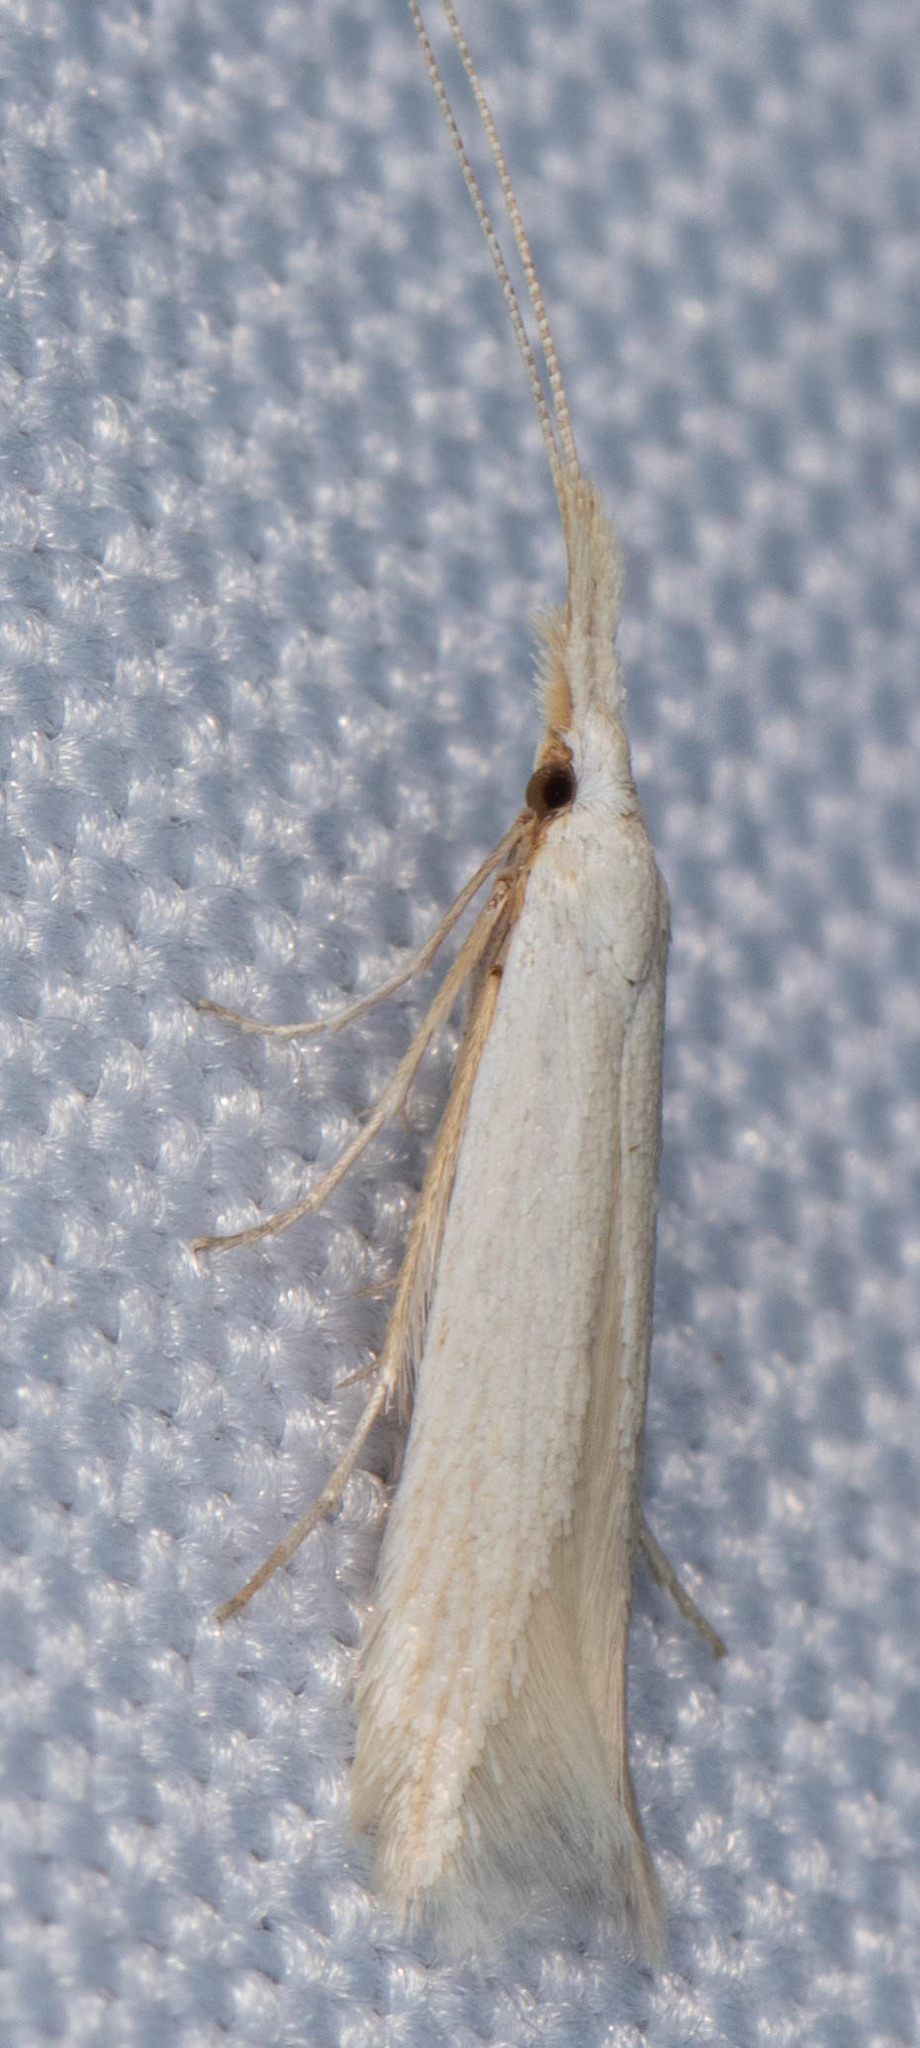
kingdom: Animalia
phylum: Arthropoda
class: Insecta
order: Lepidoptera
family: Coleophoridae
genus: Coleophora
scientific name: Coleophora parthenica
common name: Moth
